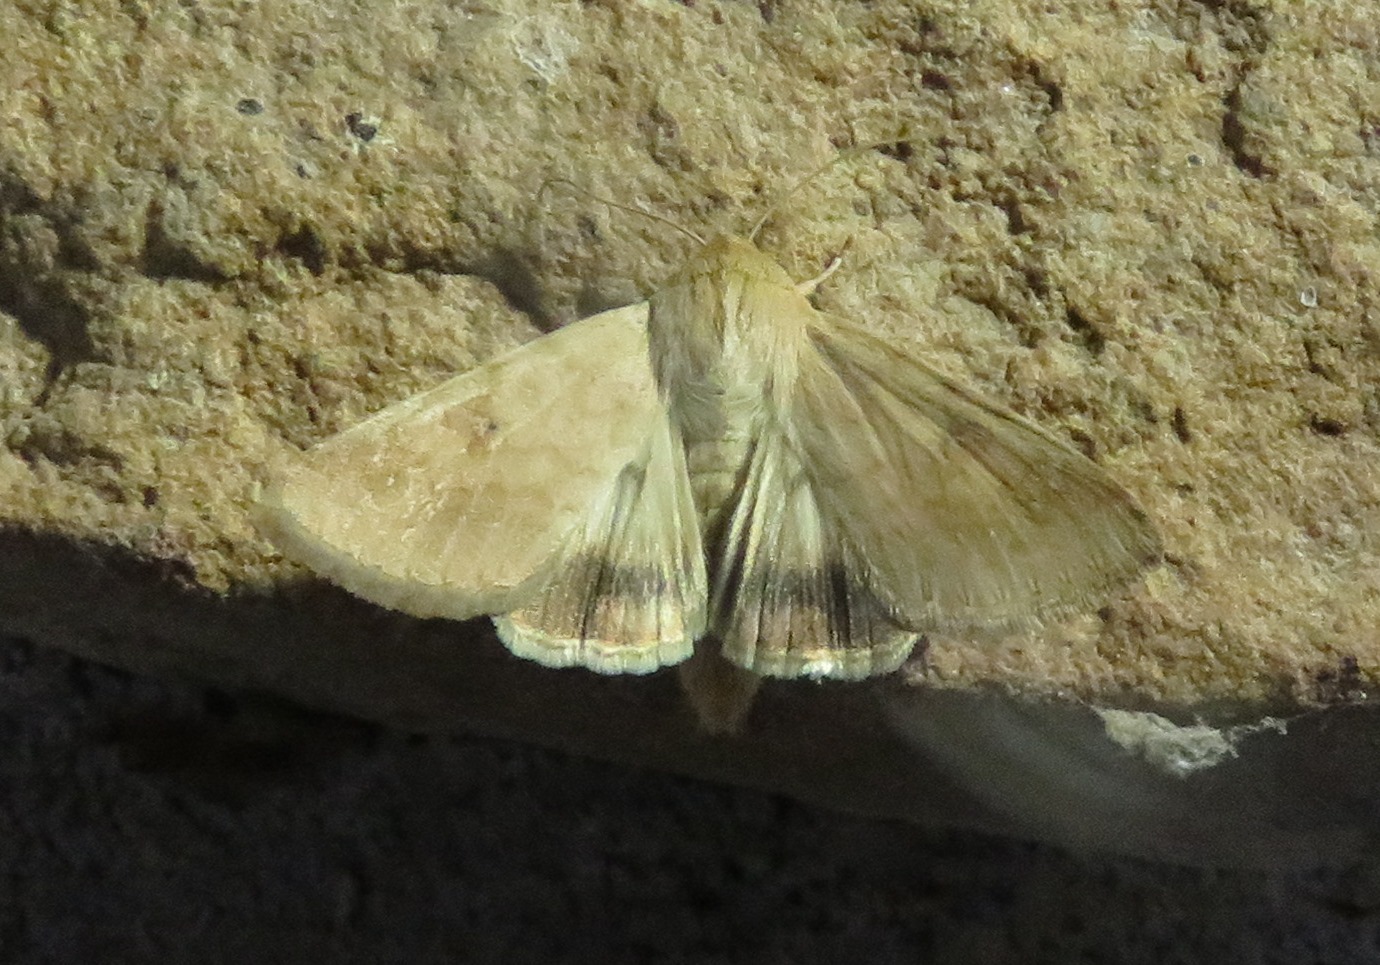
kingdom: Animalia
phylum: Arthropoda
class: Insecta
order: Lepidoptera
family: Noctuidae
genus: Helicoverpa
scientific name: Helicoverpa armigera
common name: Cotton bollworm
